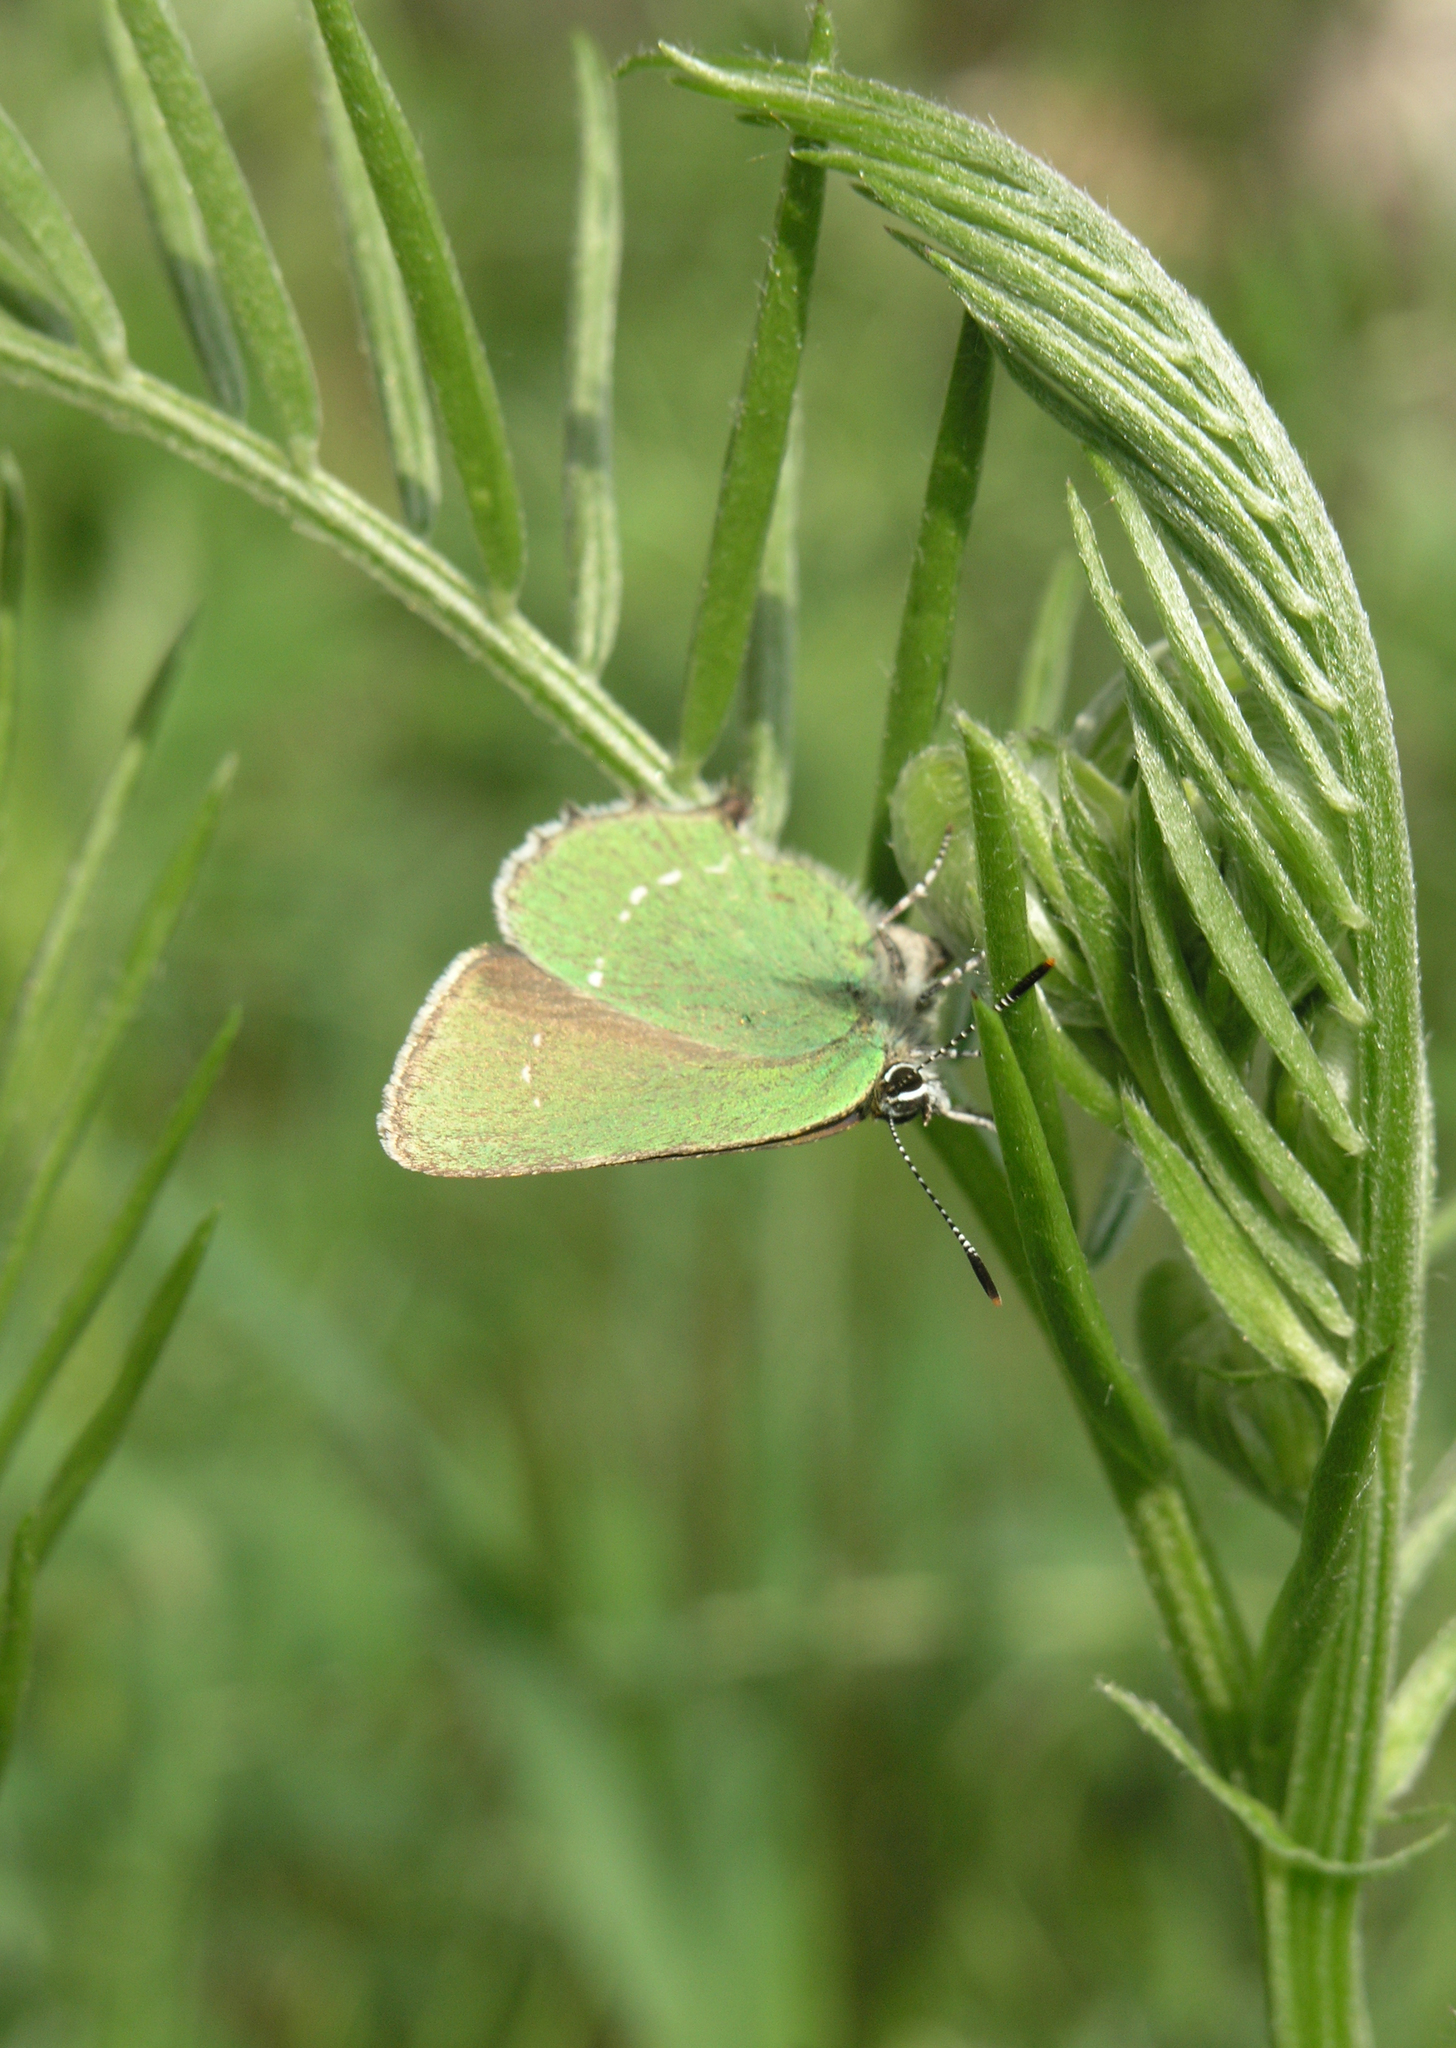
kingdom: Animalia
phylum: Arthropoda
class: Insecta
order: Lepidoptera
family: Lycaenidae
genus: Callophrys
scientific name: Callophrys rubi
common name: Green hairstreak
